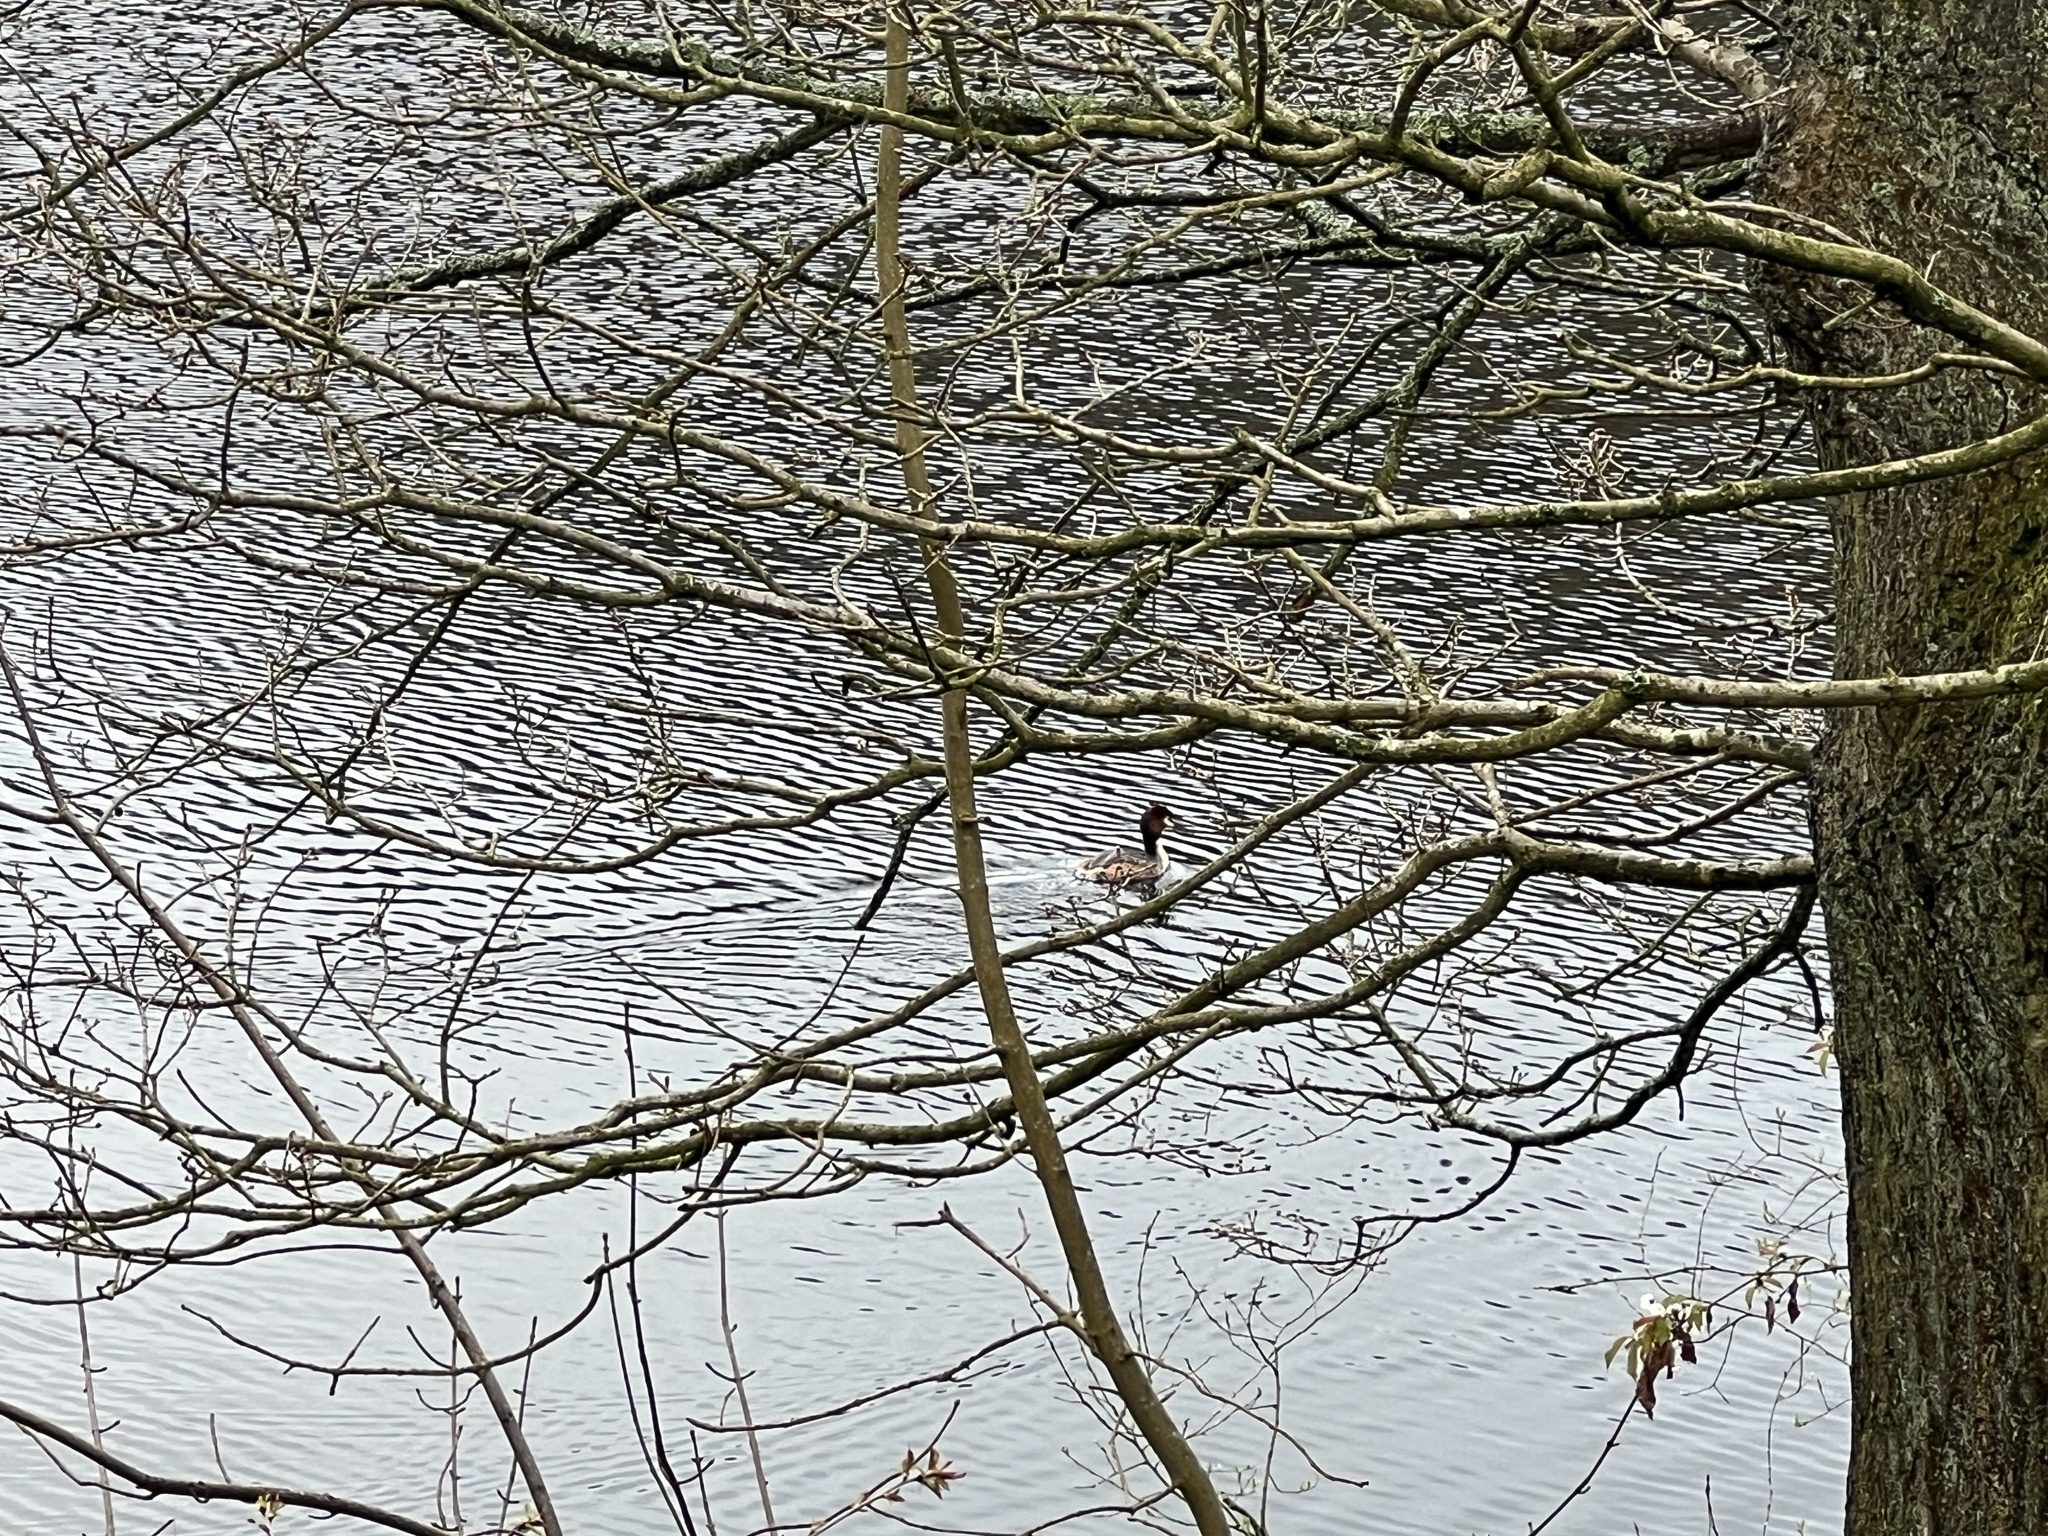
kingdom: Animalia
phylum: Chordata
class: Aves
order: Podicipediformes
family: Podicipedidae
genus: Podiceps
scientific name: Podiceps cristatus
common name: Great crested grebe
